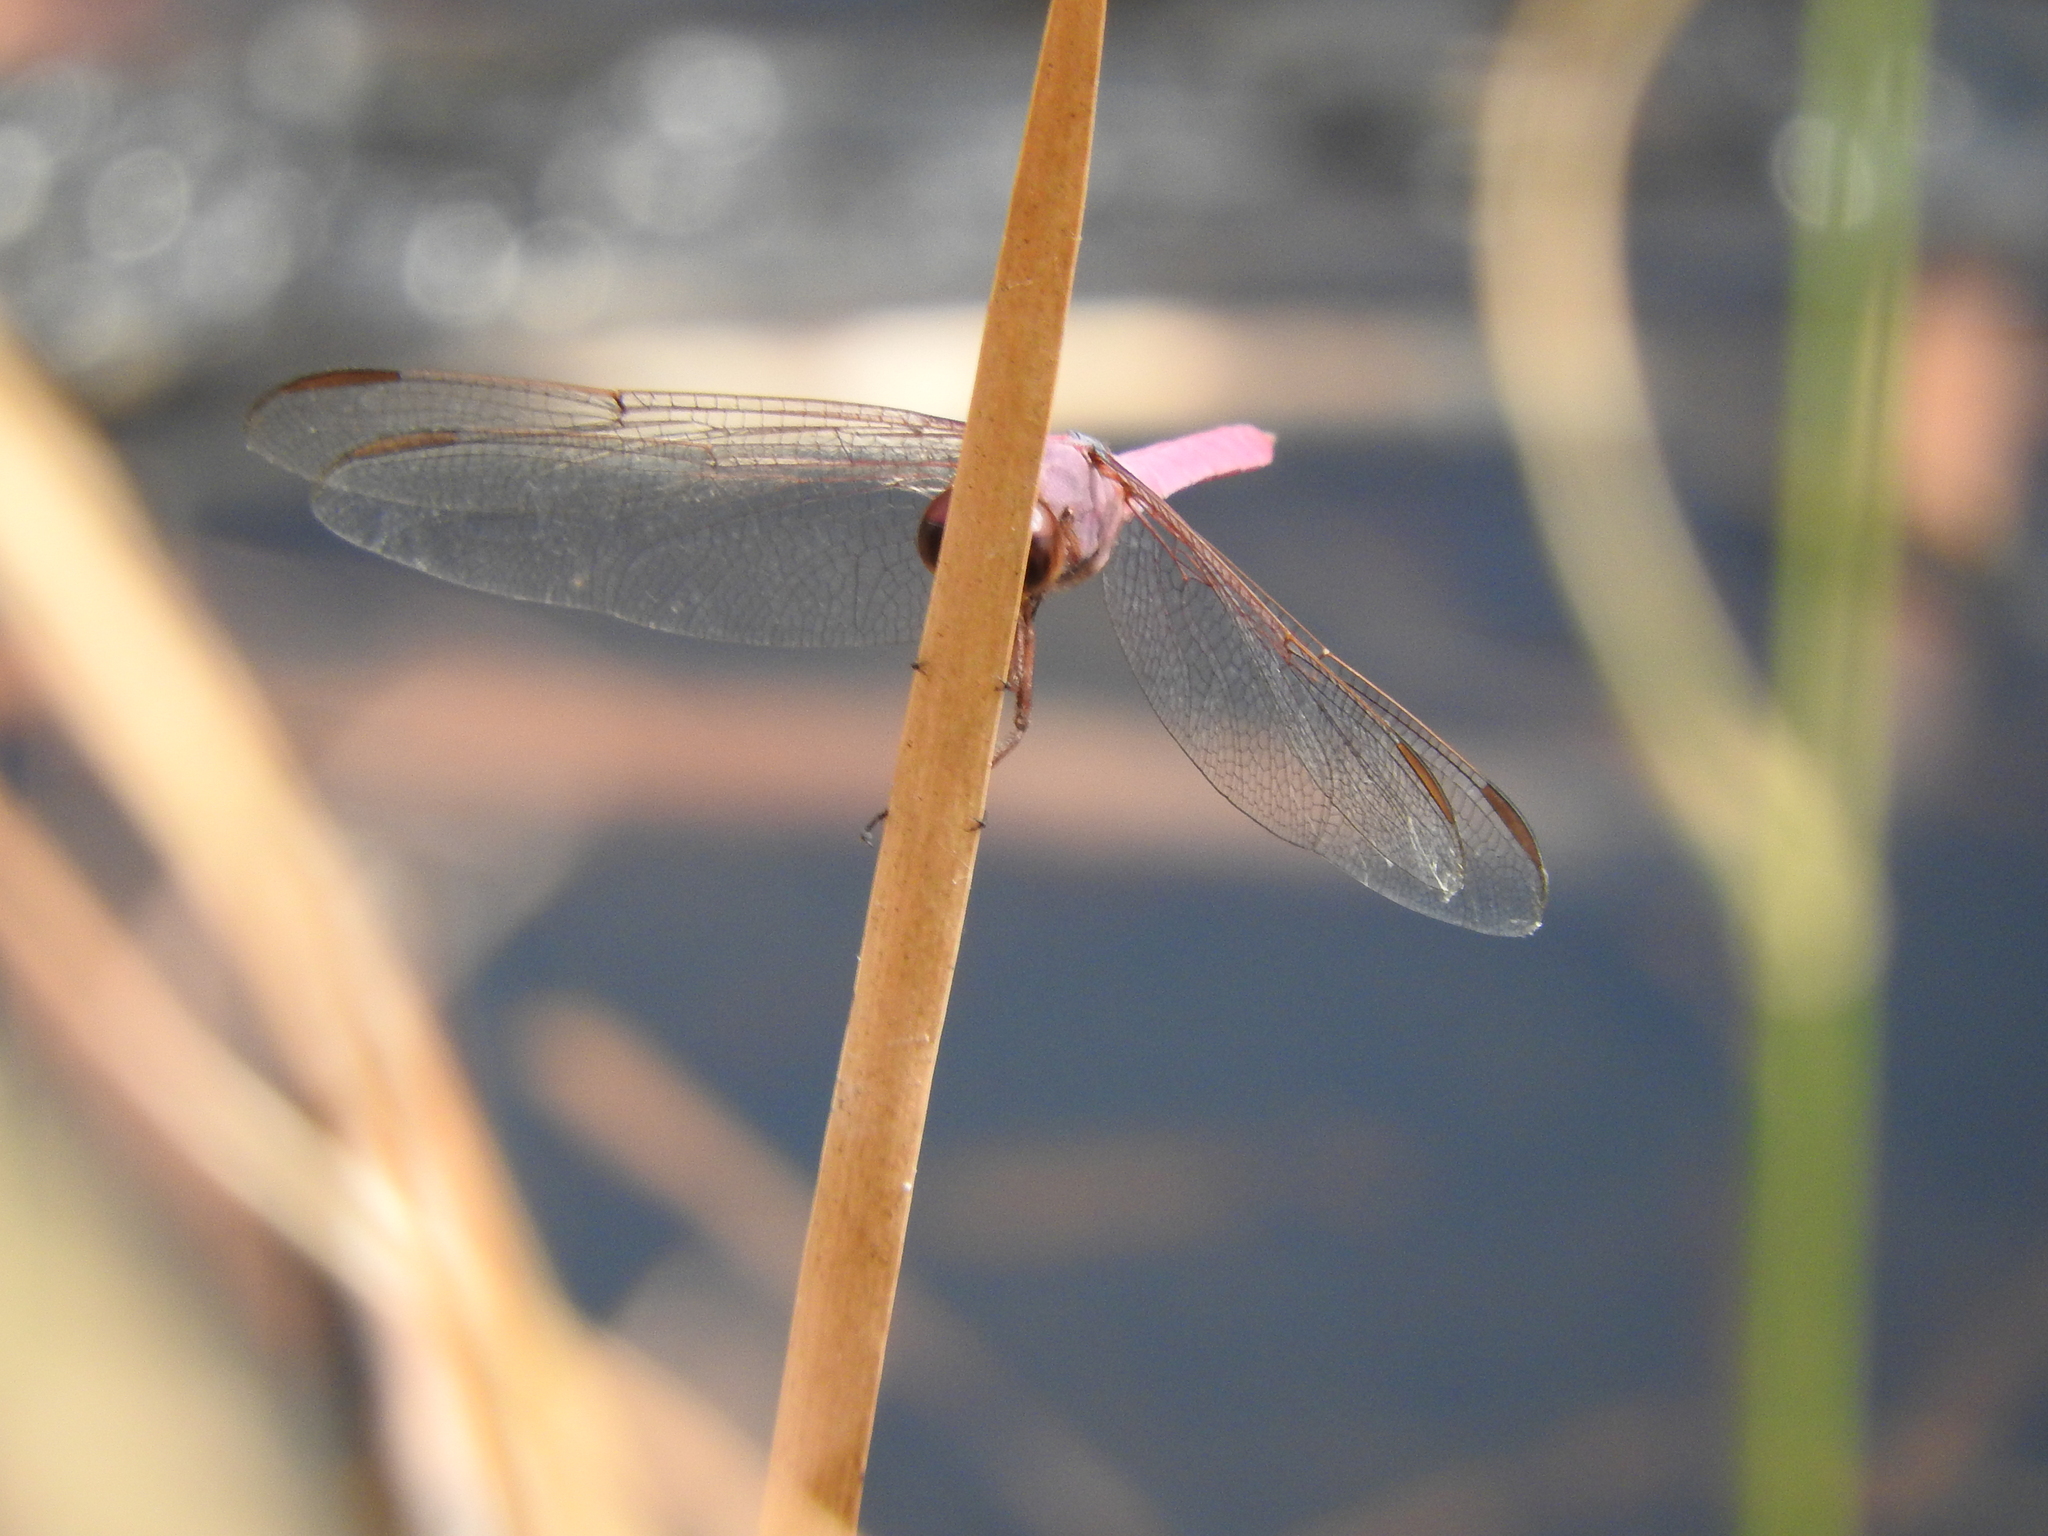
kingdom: Animalia
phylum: Arthropoda
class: Insecta
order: Odonata
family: Libellulidae
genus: Orthemis
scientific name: Orthemis ferruginea
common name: Roseate skimmer
